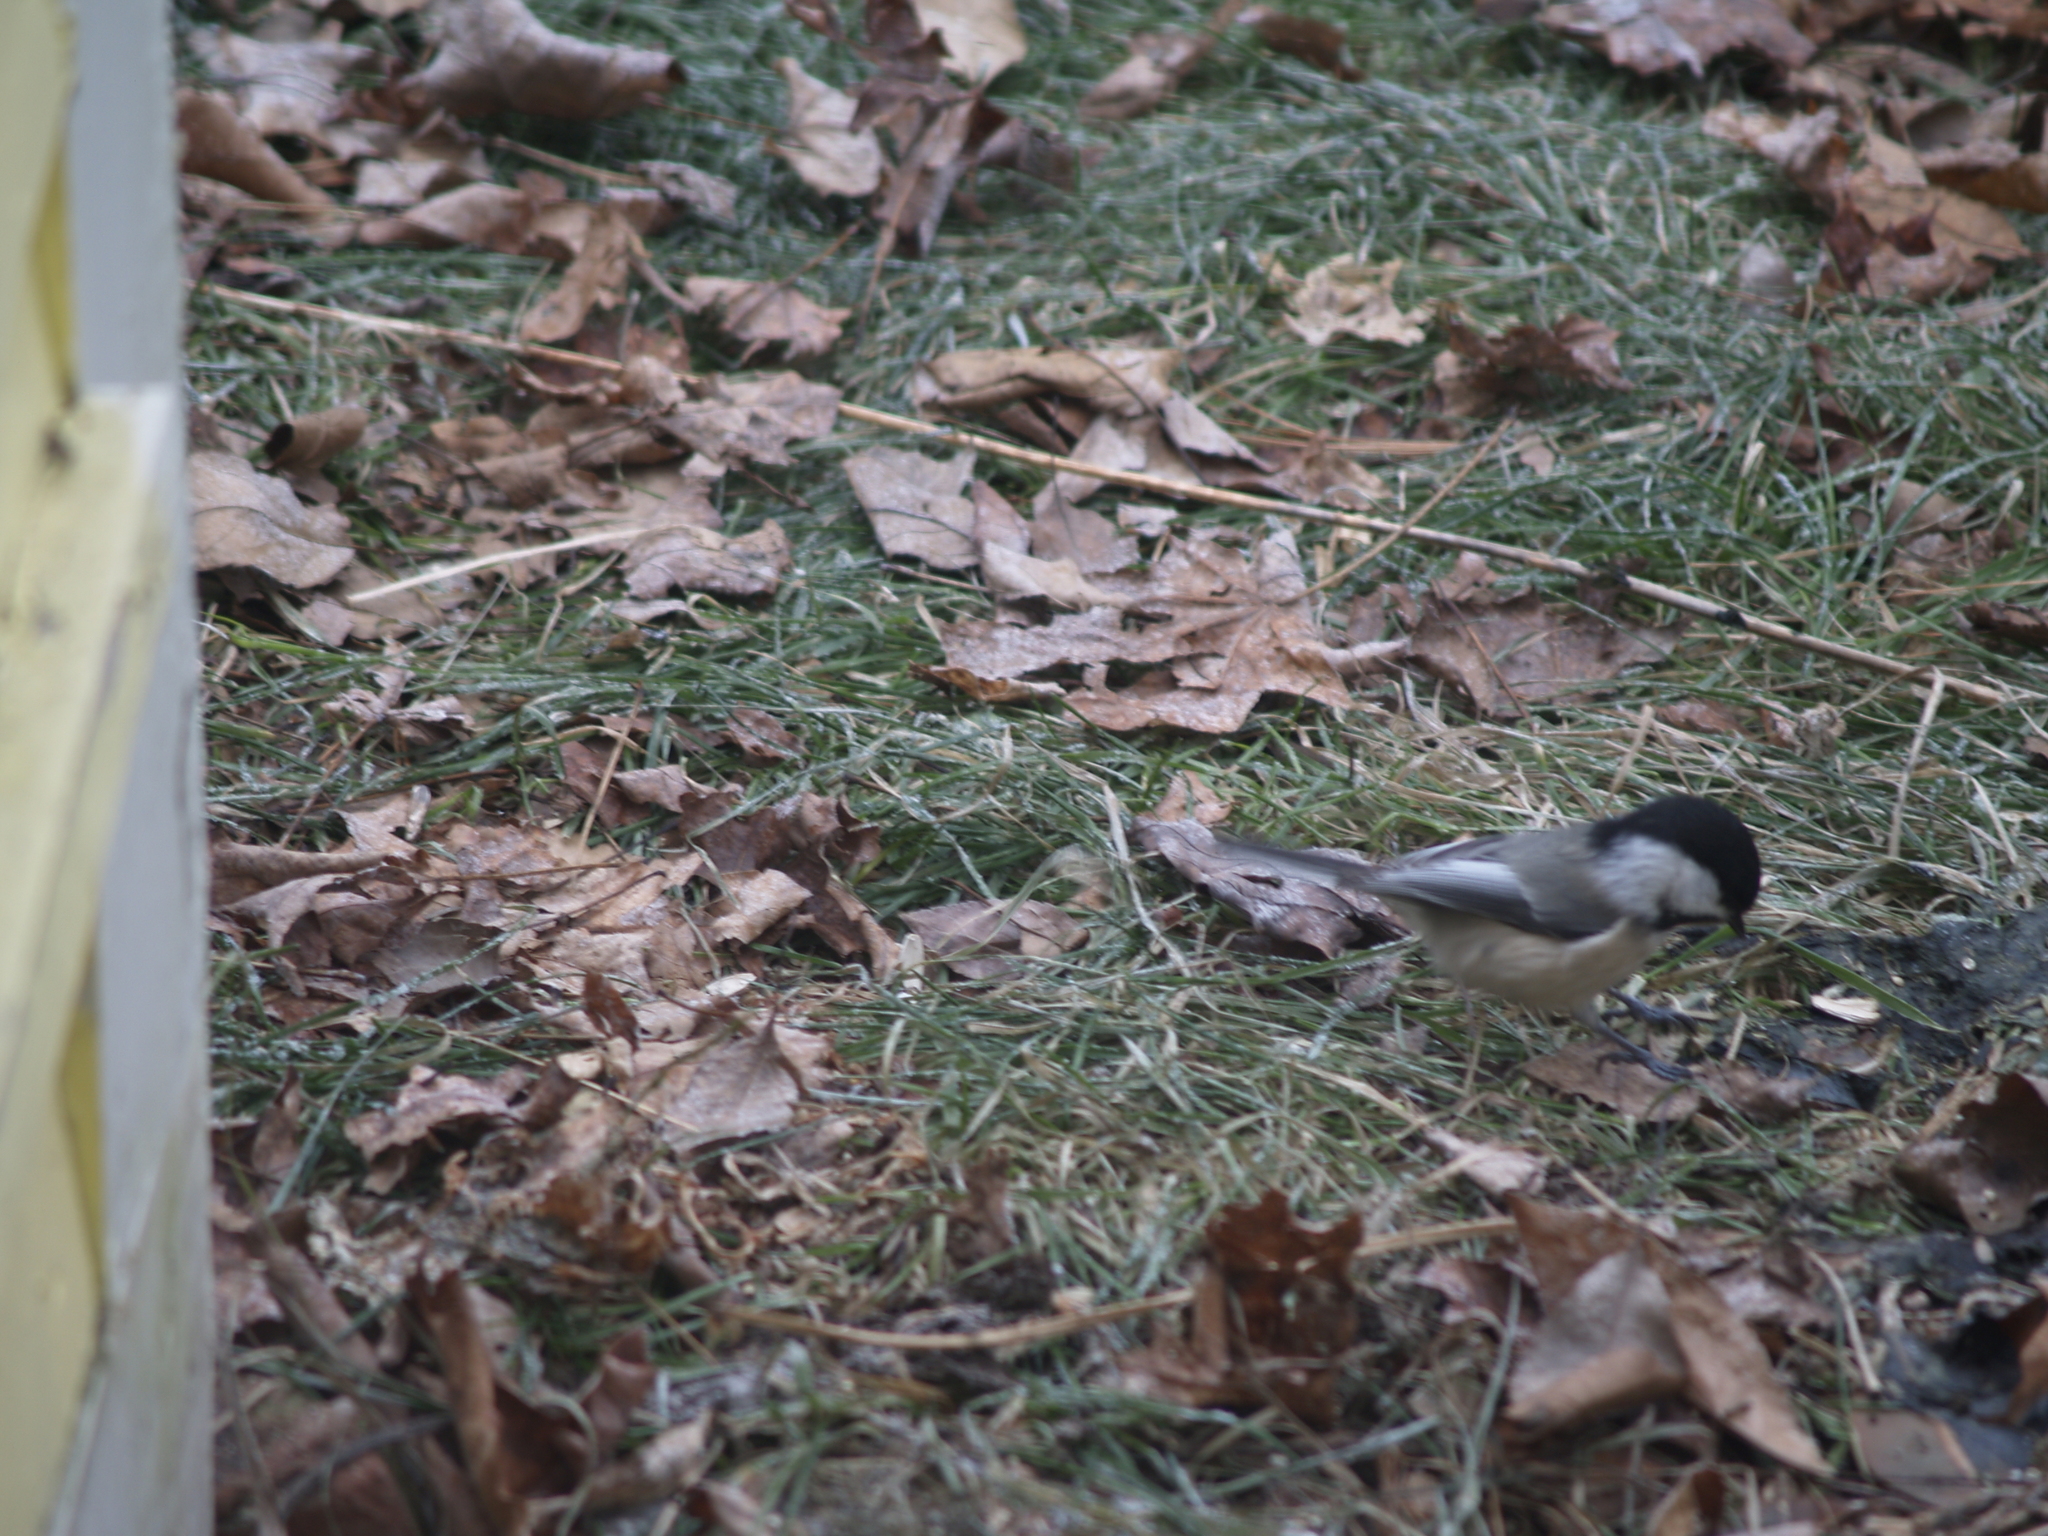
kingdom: Animalia
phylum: Chordata
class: Aves
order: Passeriformes
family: Paridae
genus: Poecile
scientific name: Poecile atricapillus
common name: Black-capped chickadee
